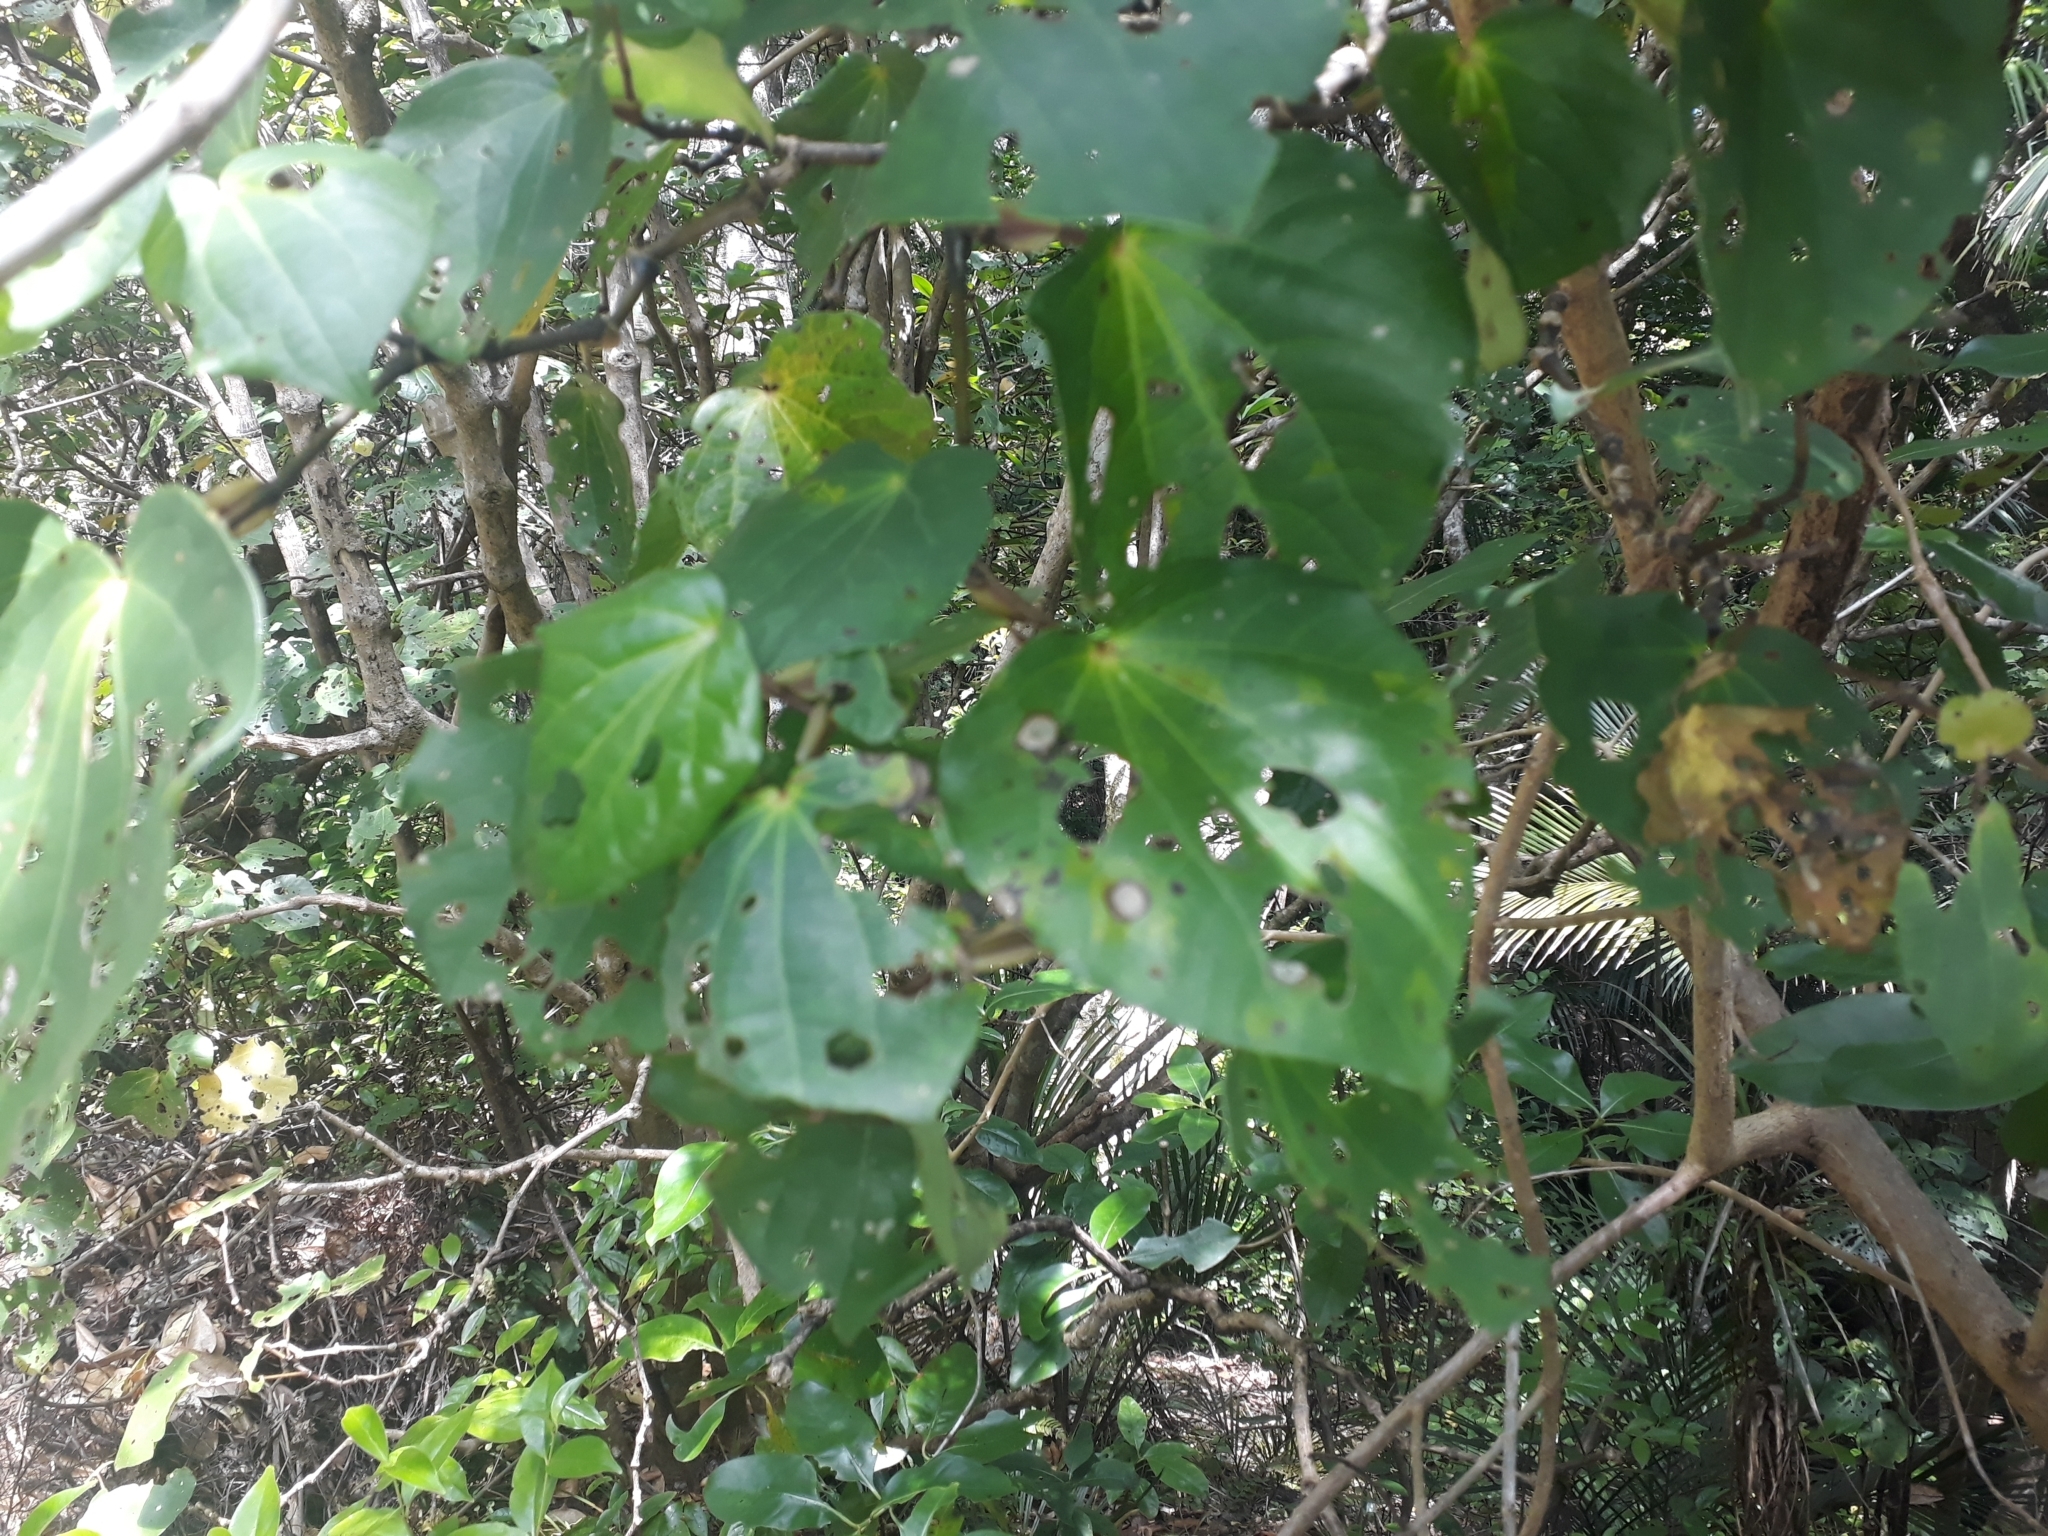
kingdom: Plantae
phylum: Tracheophyta
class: Magnoliopsida
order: Piperales
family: Piperaceae
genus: Macropiper
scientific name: Macropiper excelsum
